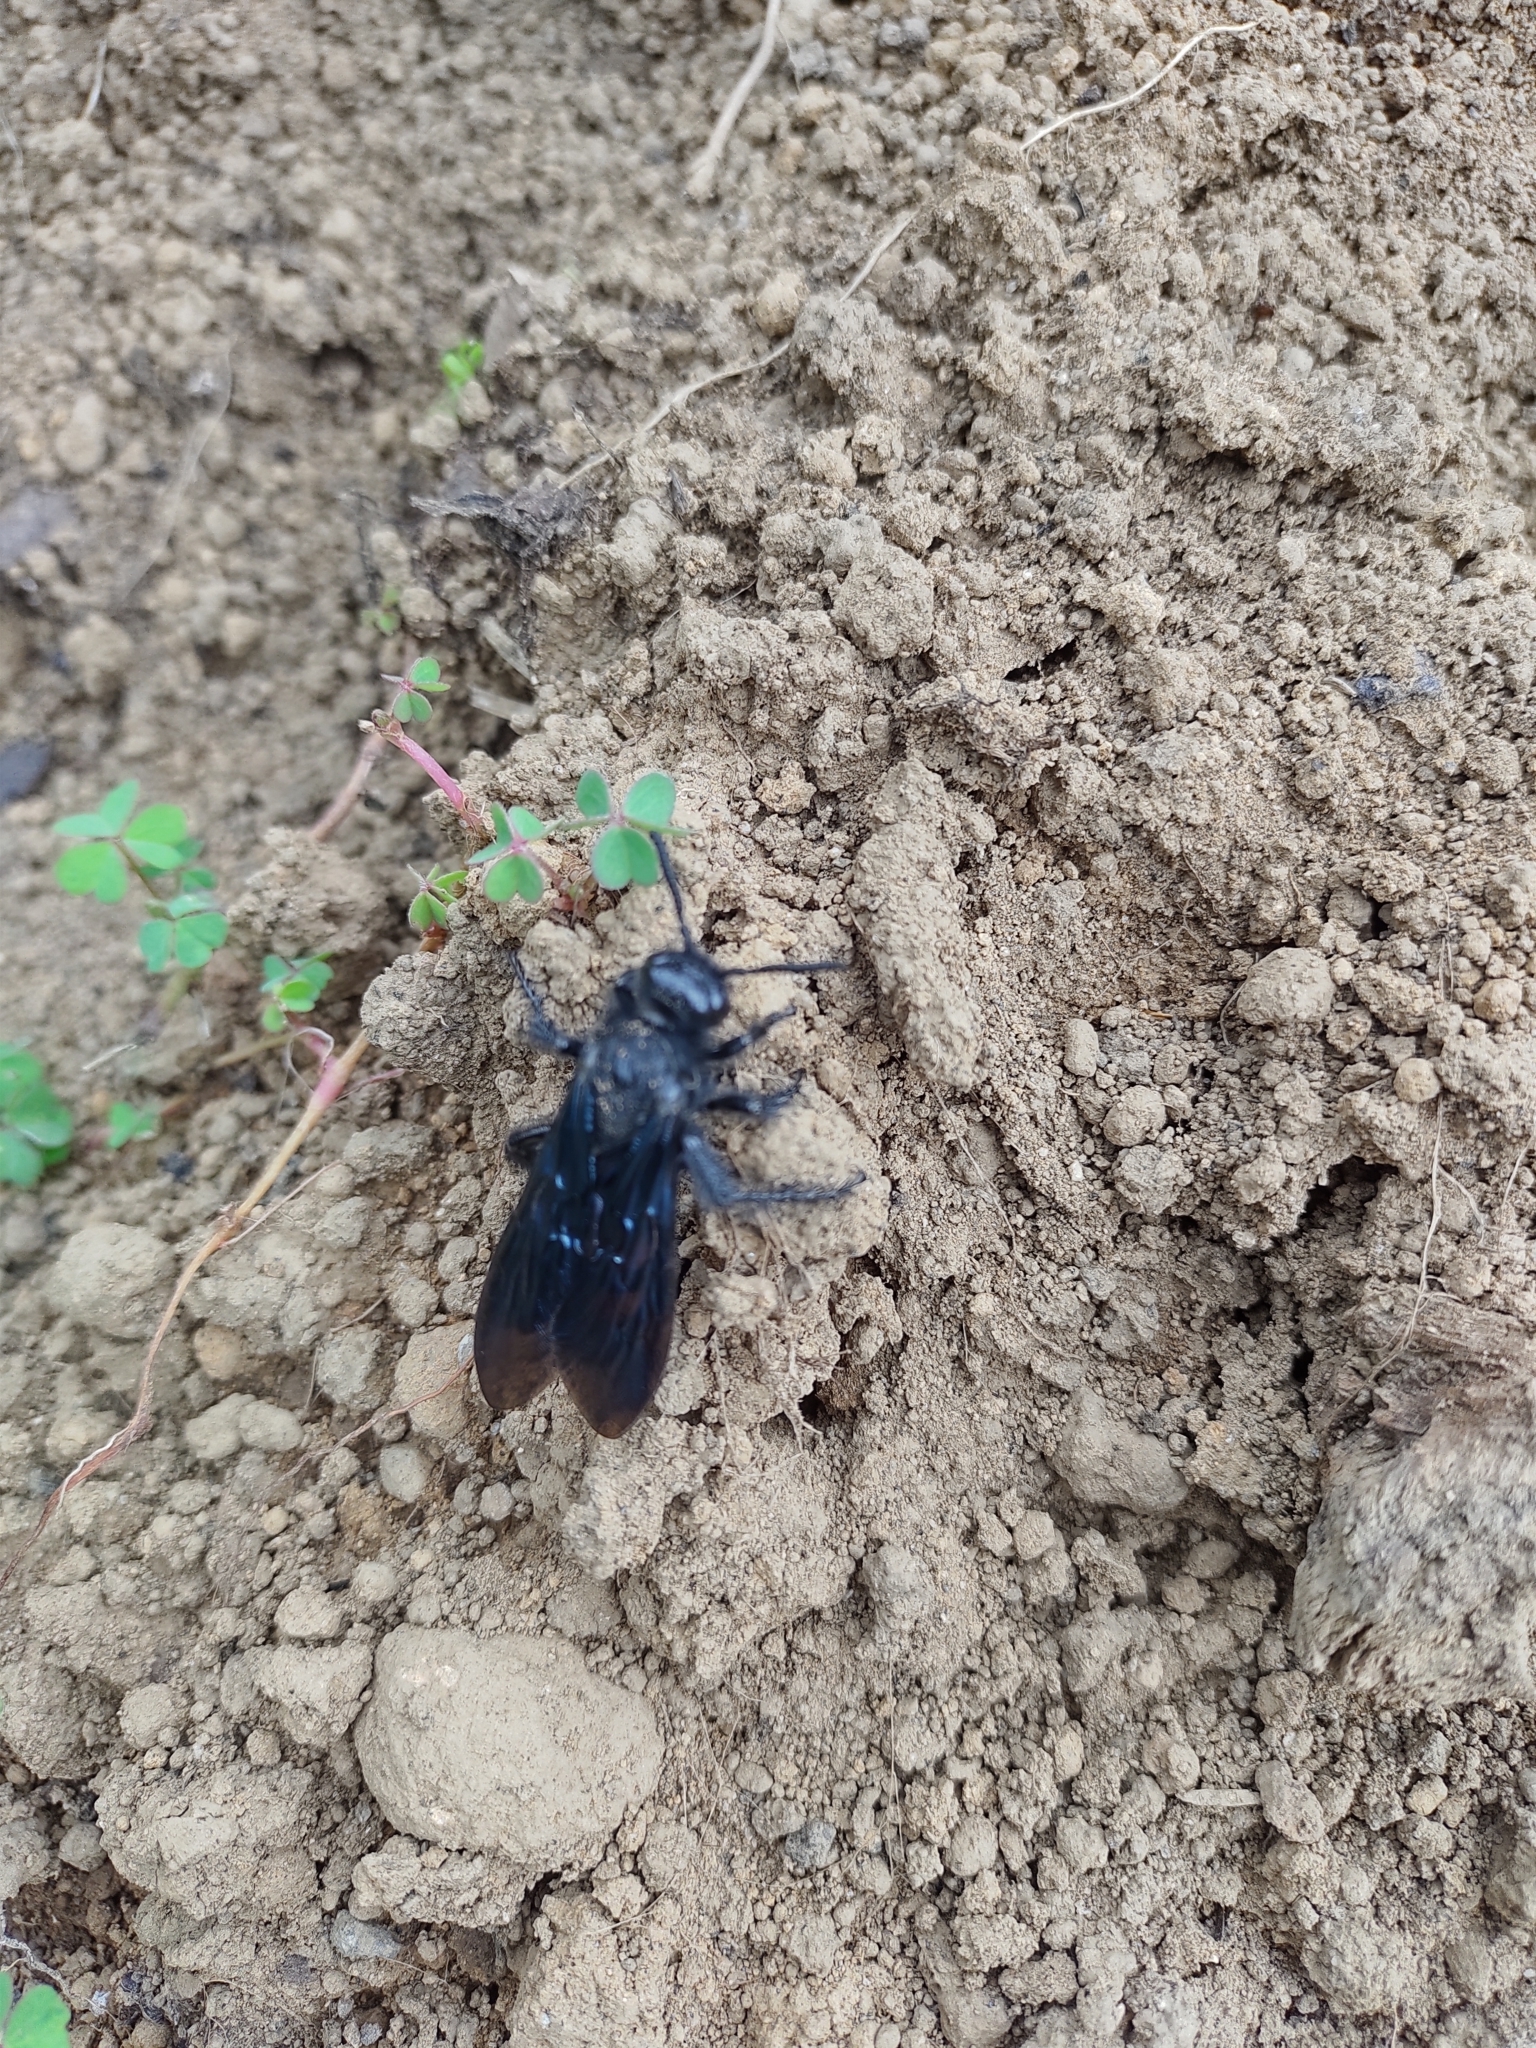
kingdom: Animalia
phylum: Arthropoda
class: Insecta
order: Hymenoptera
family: Scoliidae
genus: Pygodasis
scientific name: Pygodasis ephippium
